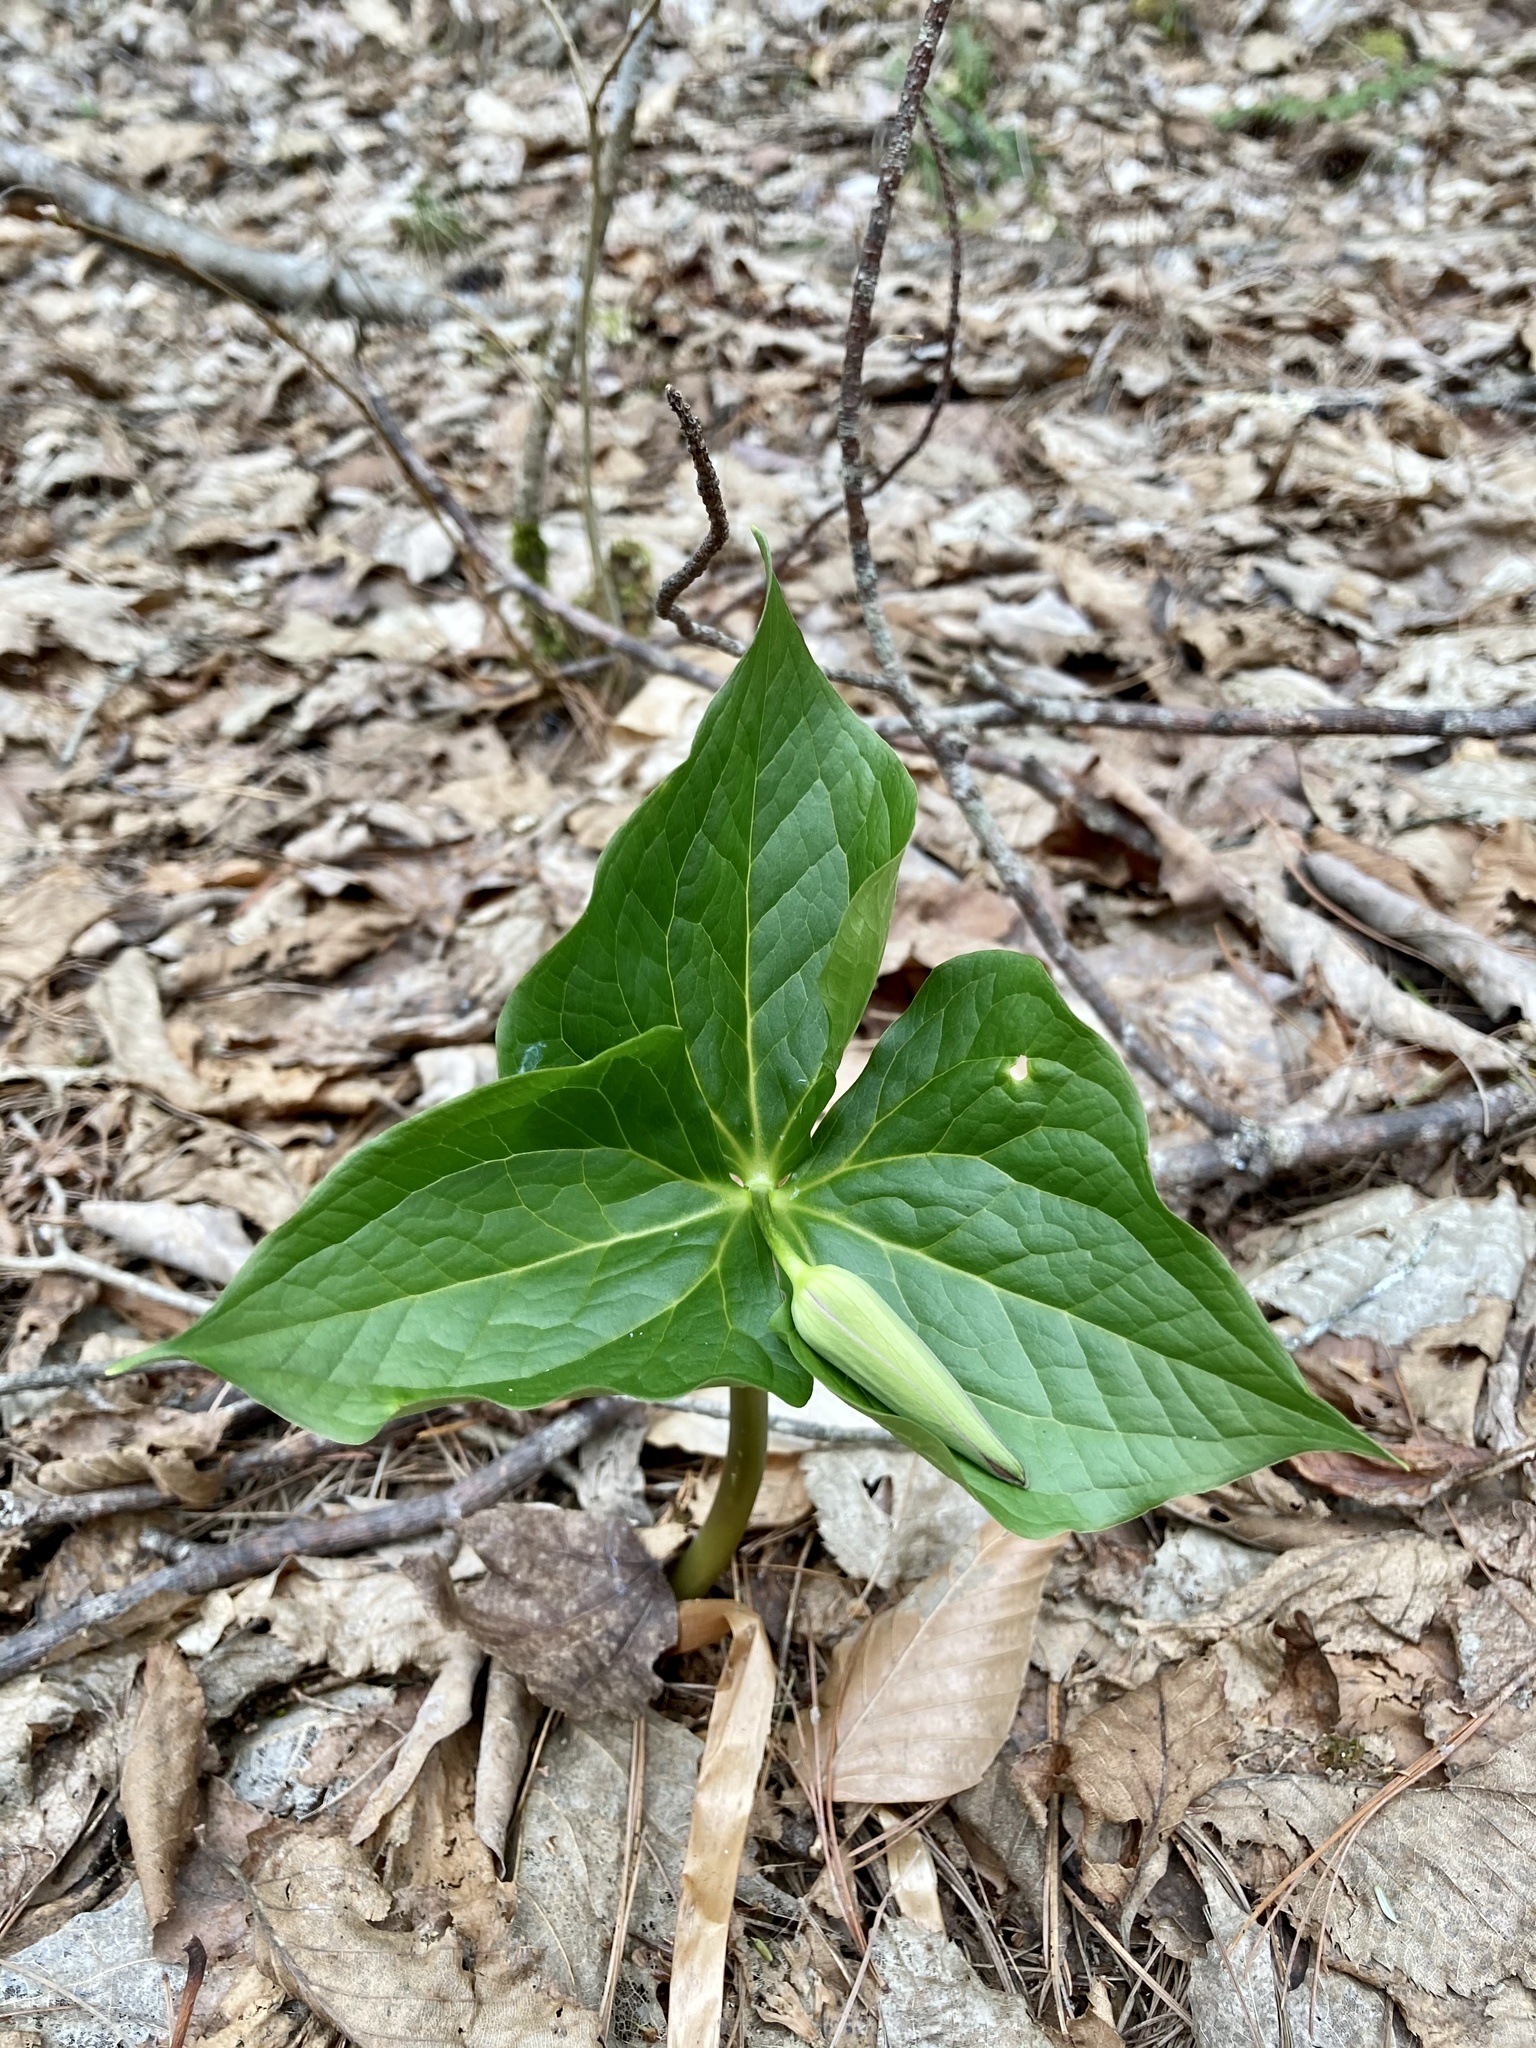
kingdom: Plantae
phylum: Tracheophyta
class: Liliopsida
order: Liliales
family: Melanthiaceae
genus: Trillium
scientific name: Trillium erectum
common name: Purple trillium
